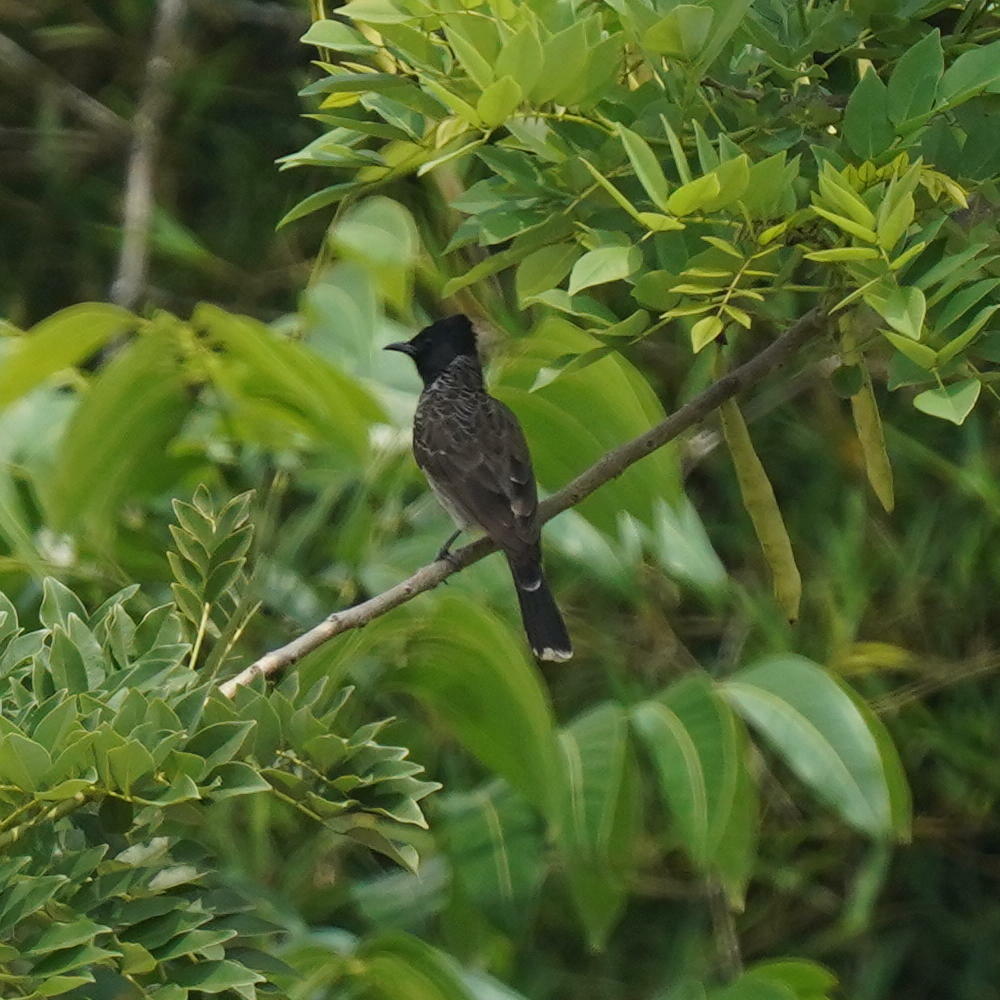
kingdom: Animalia
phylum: Chordata
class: Aves
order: Passeriformes
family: Pycnonotidae
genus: Pycnonotus
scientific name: Pycnonotus cafer
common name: Red-vented bulbul
